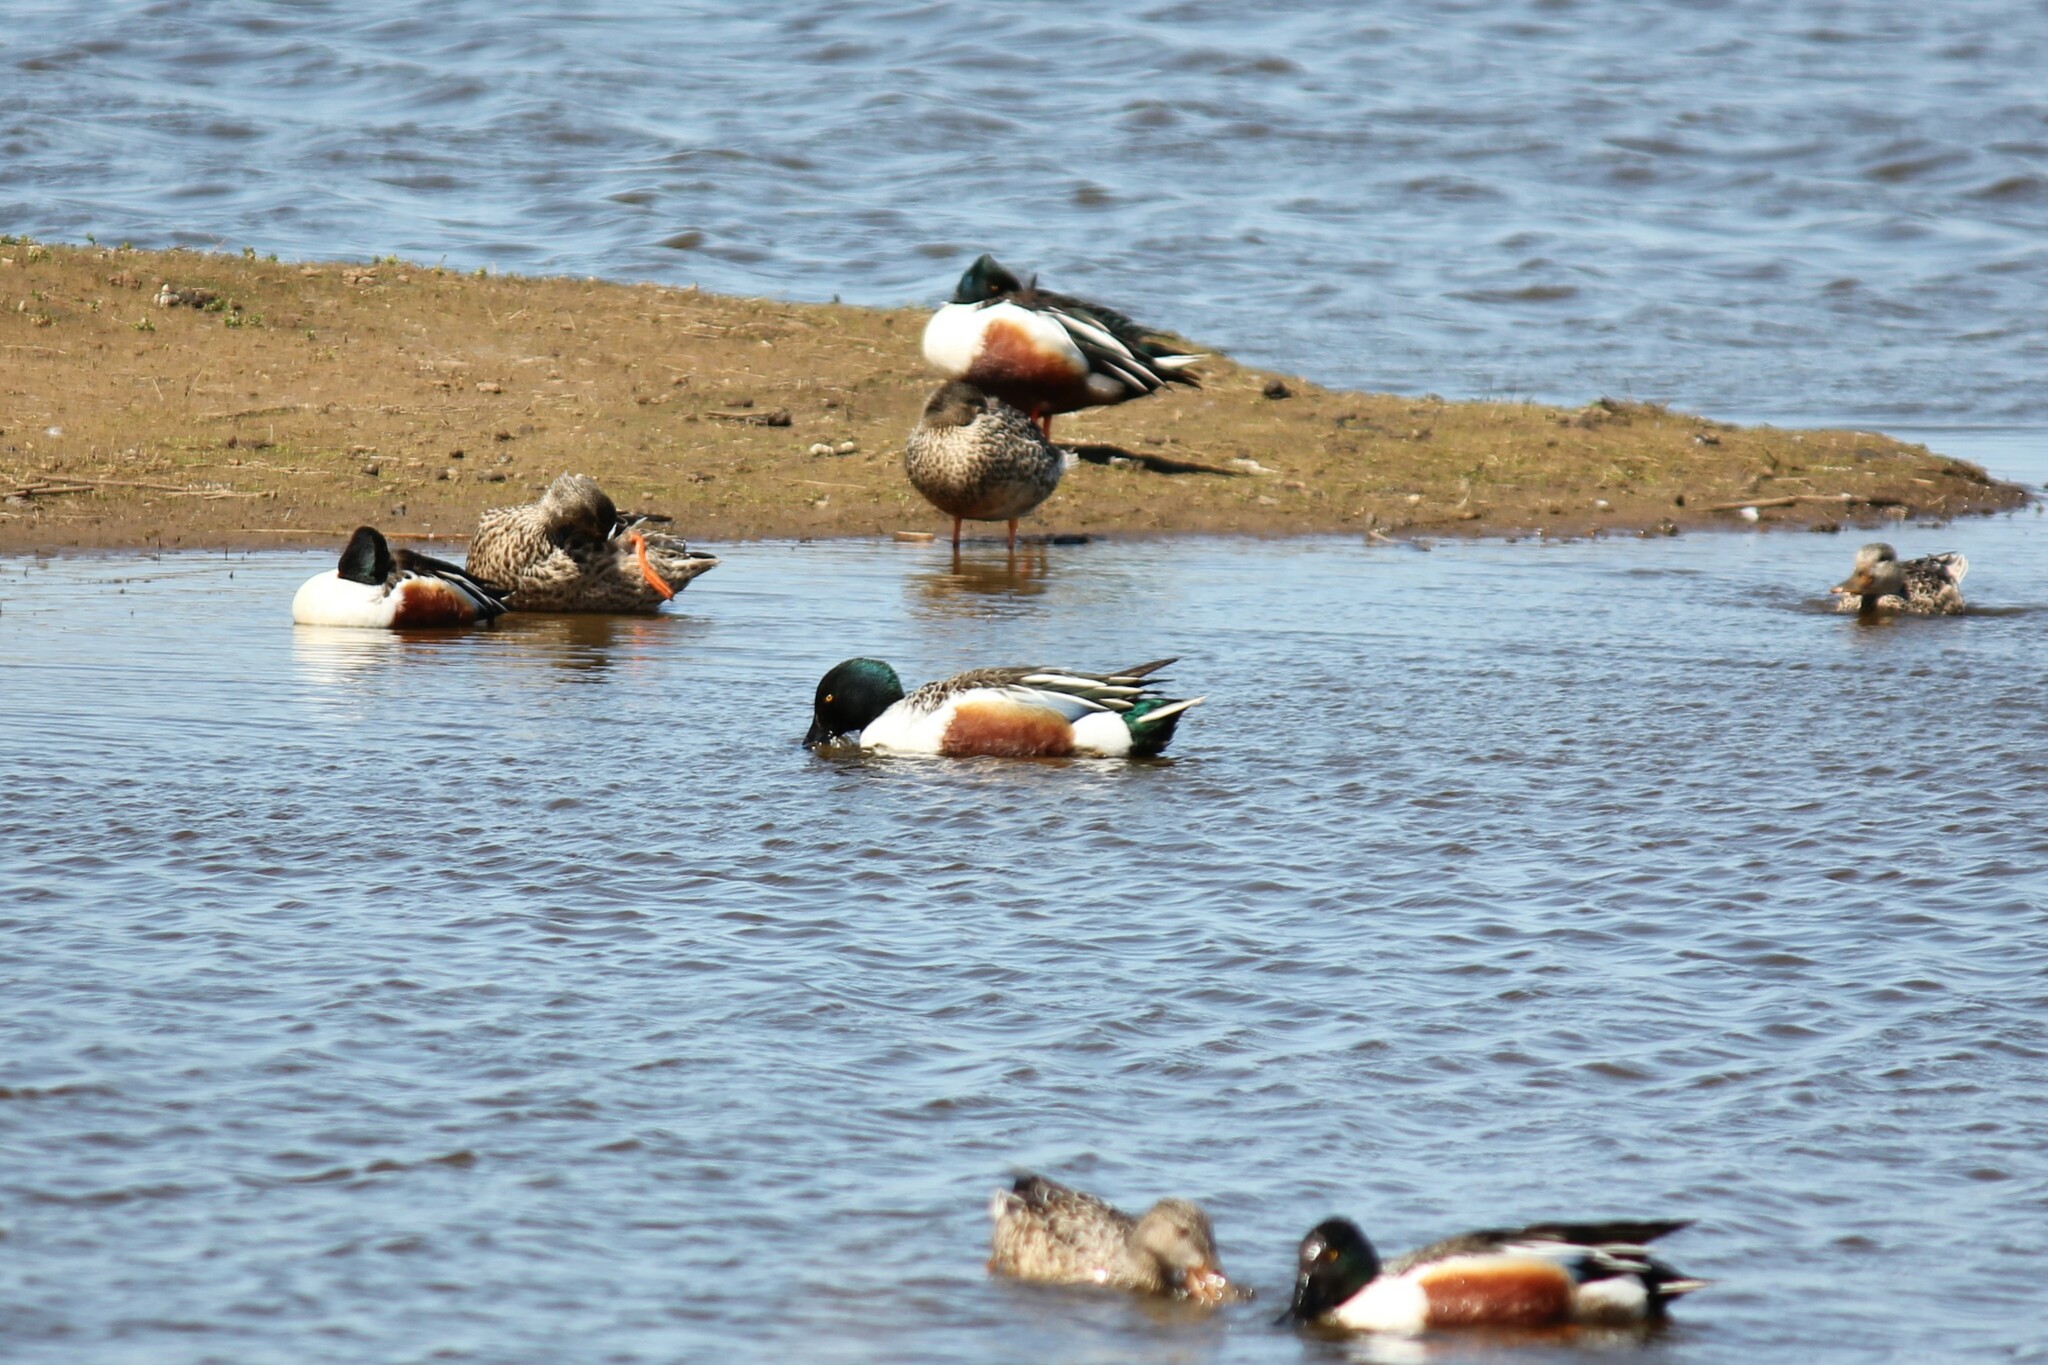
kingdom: Animalia
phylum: Chordata
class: Aves
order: Anseriformes
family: Anatidae
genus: Spatula
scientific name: Spatula clypeata
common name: Northern shoveler
